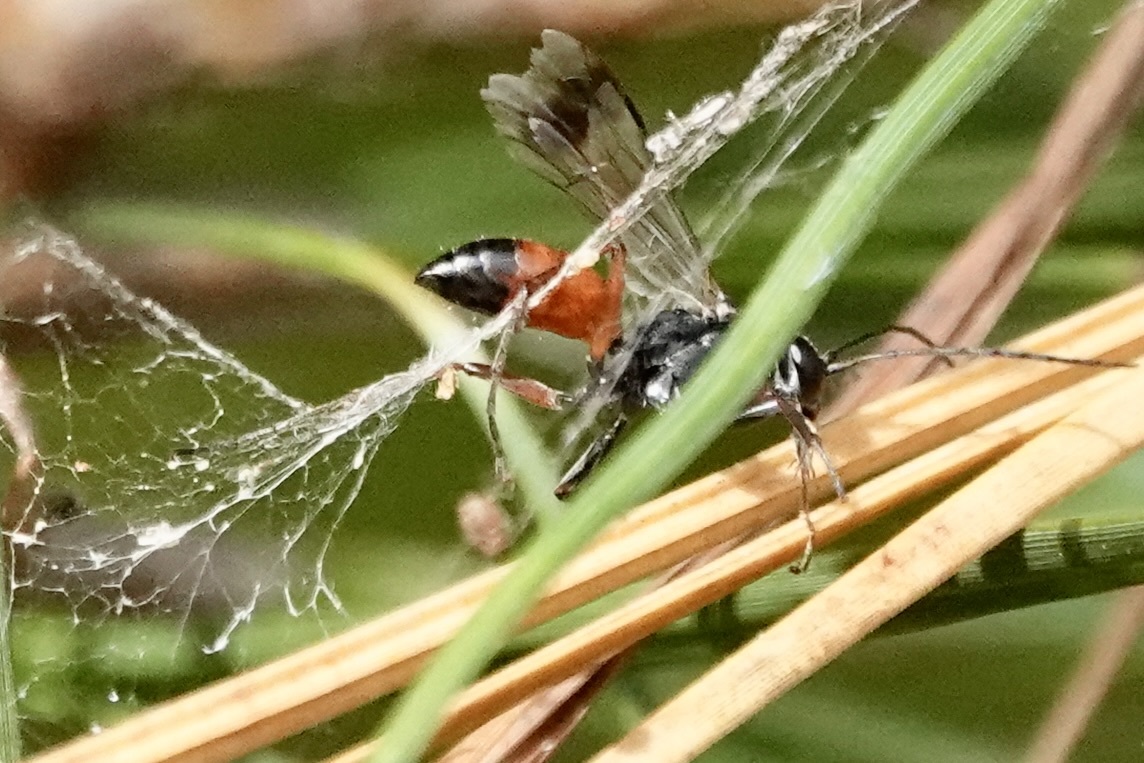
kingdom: Animalia
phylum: Arthropoda
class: Insecta
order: Hymenoptera
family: Pompilidae
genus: Caliadurgus
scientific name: Caliadurgus fasciatellus
